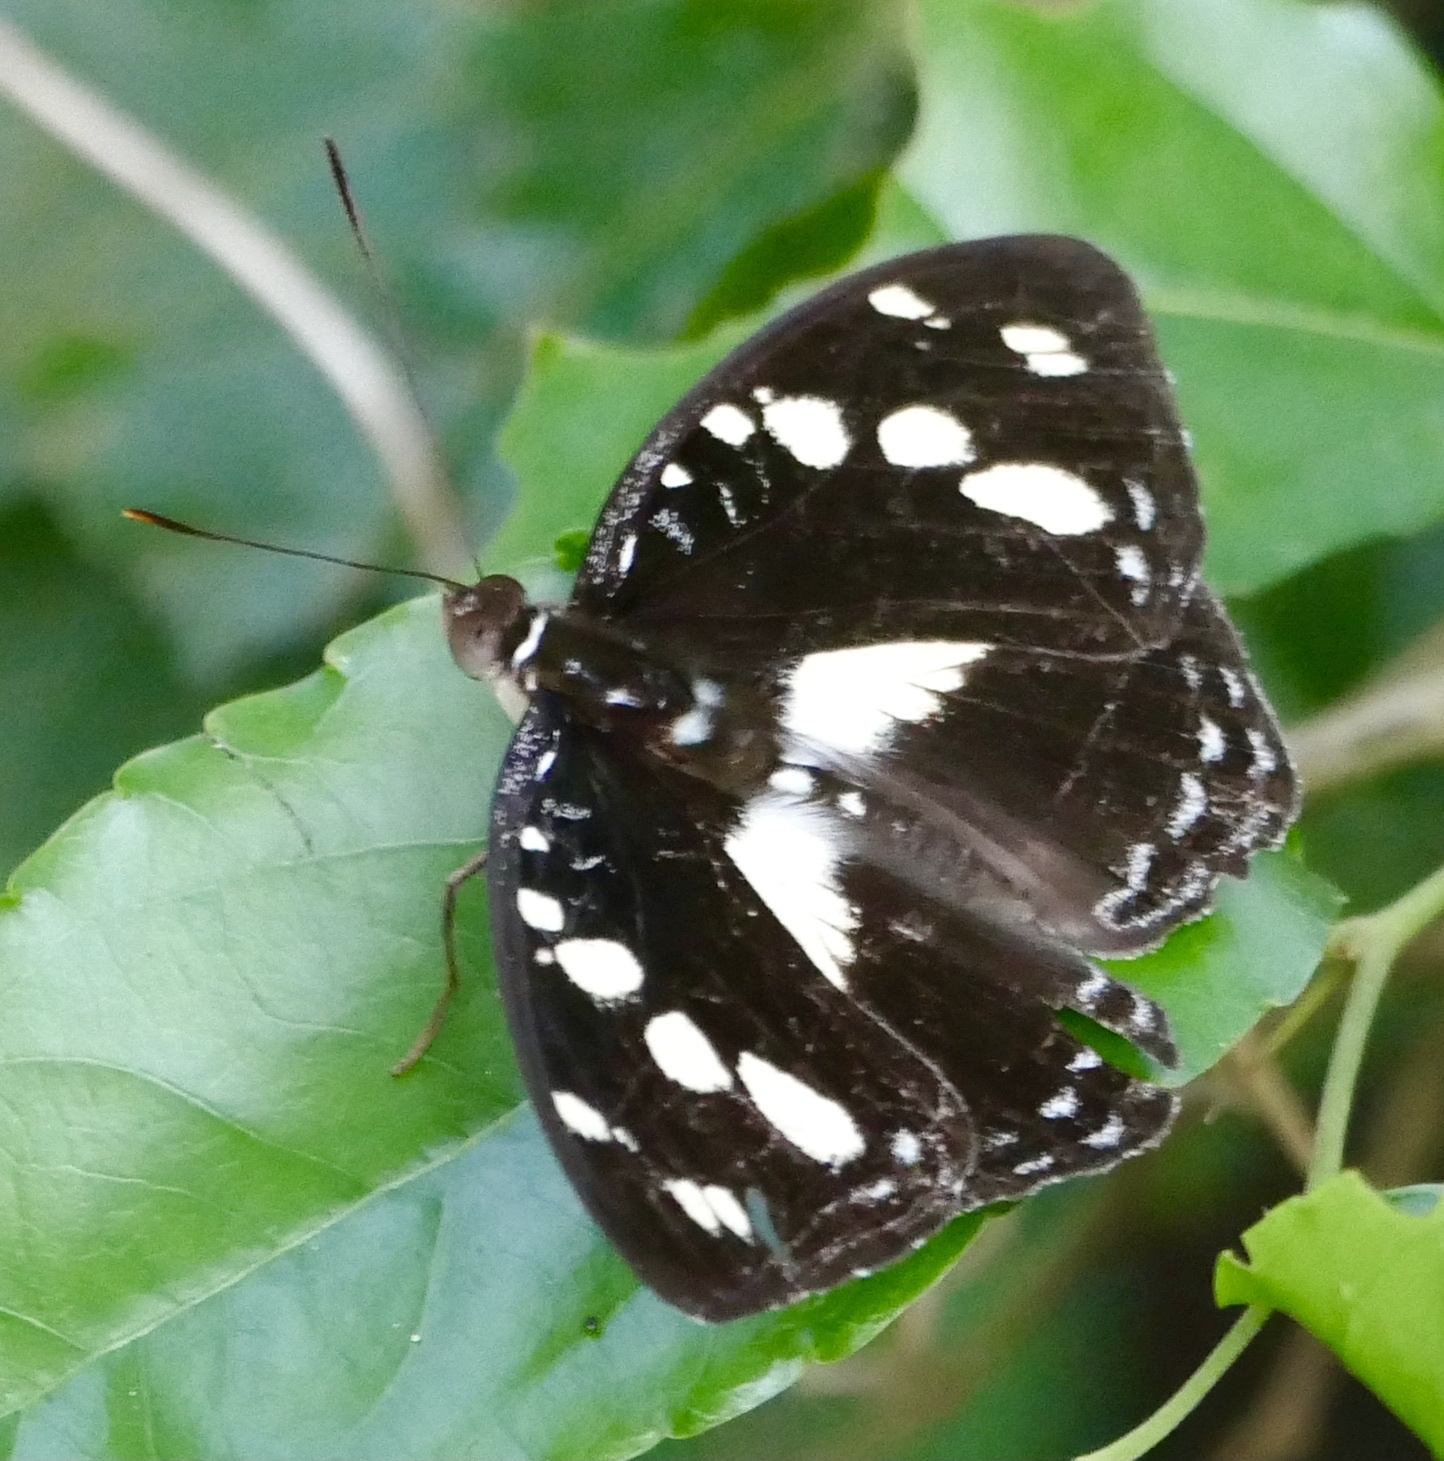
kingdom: Animalia
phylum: Arthropoda
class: Insecta
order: Lepidoptera
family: Nymphalidae
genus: Aterica
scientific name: Aterica galene
